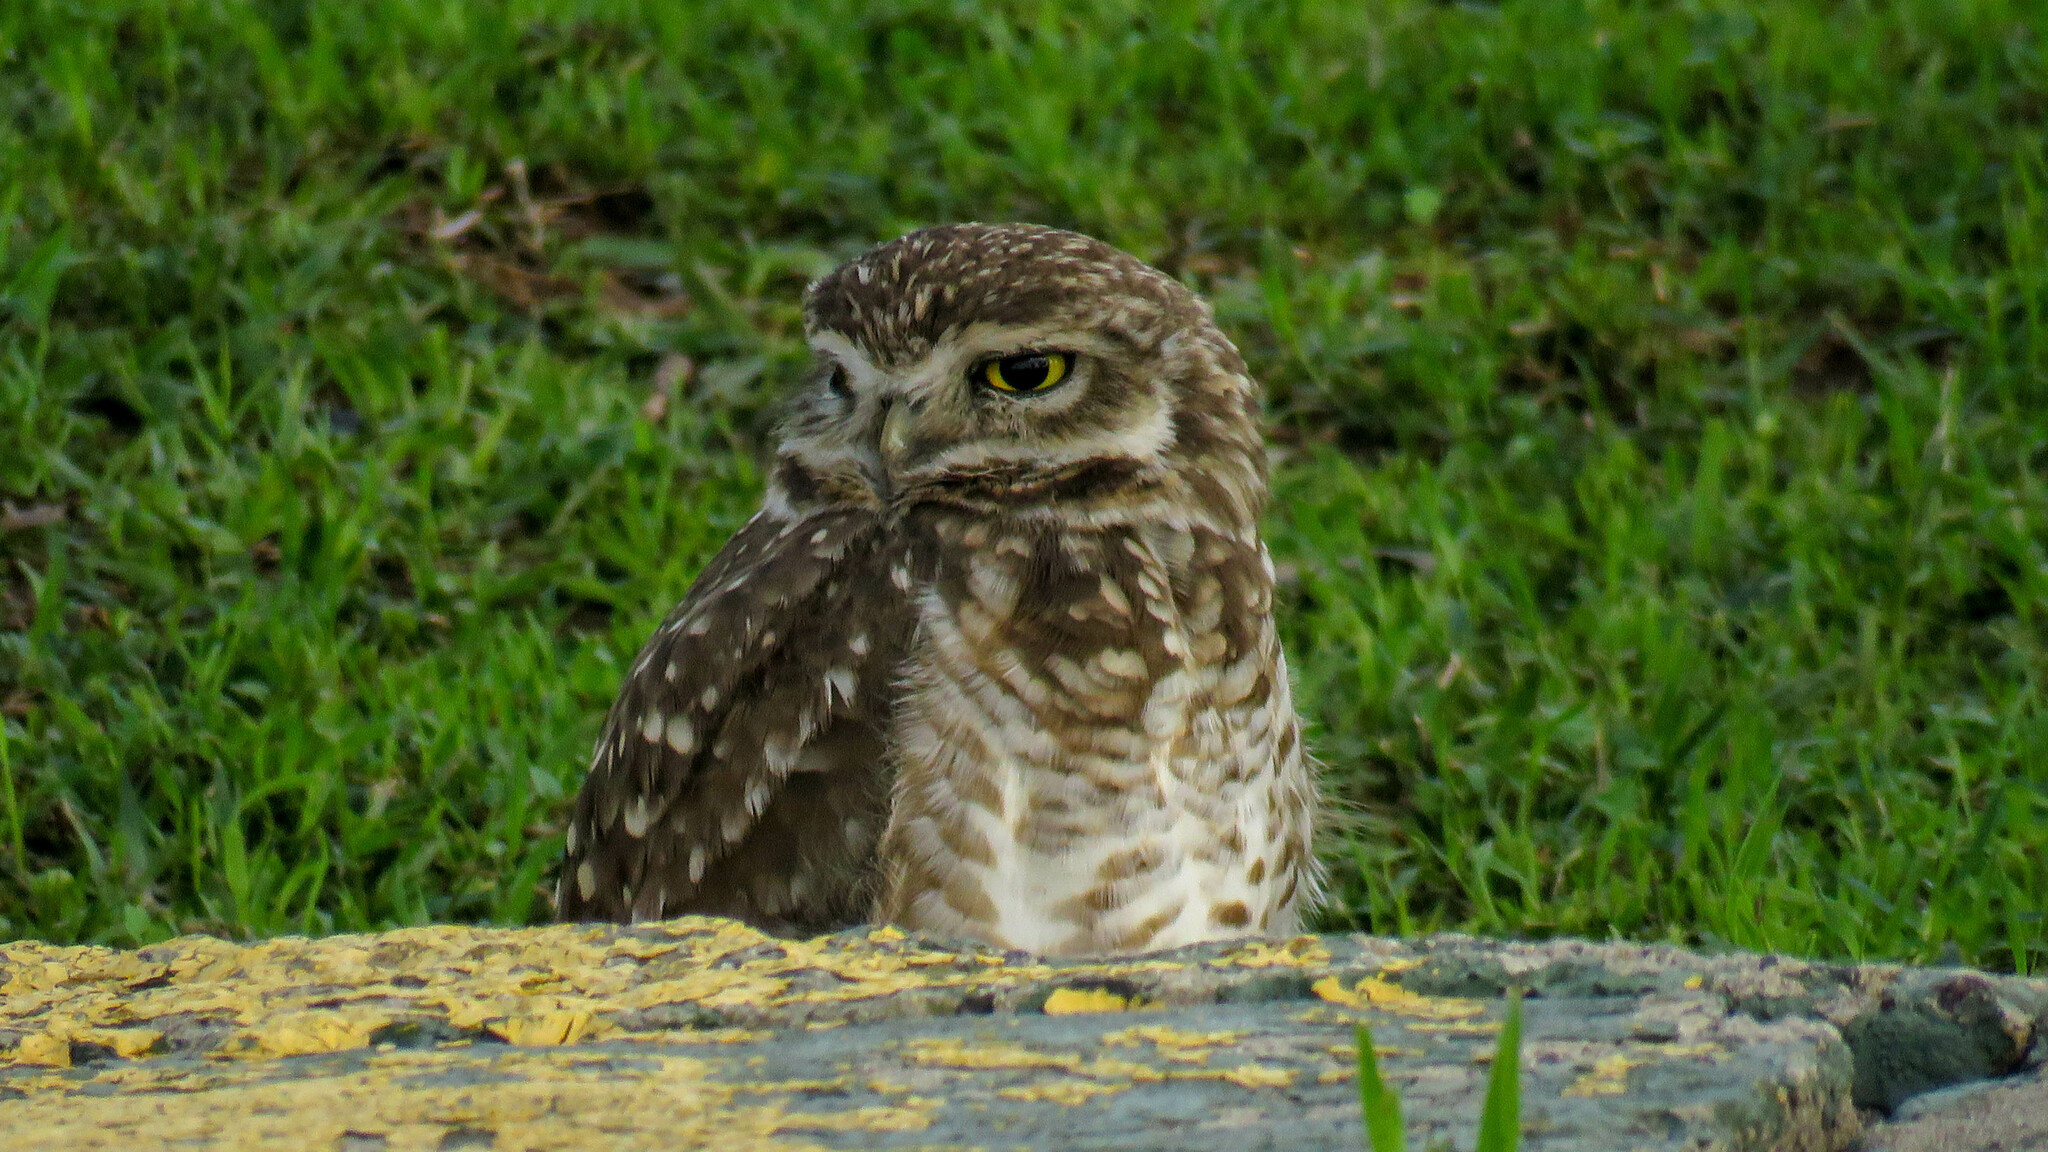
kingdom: Animalia
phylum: Chordata
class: Aves
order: Strigiformes
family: Strigidae
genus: Athene
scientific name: Athene cunicularia
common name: Burrowing owl
